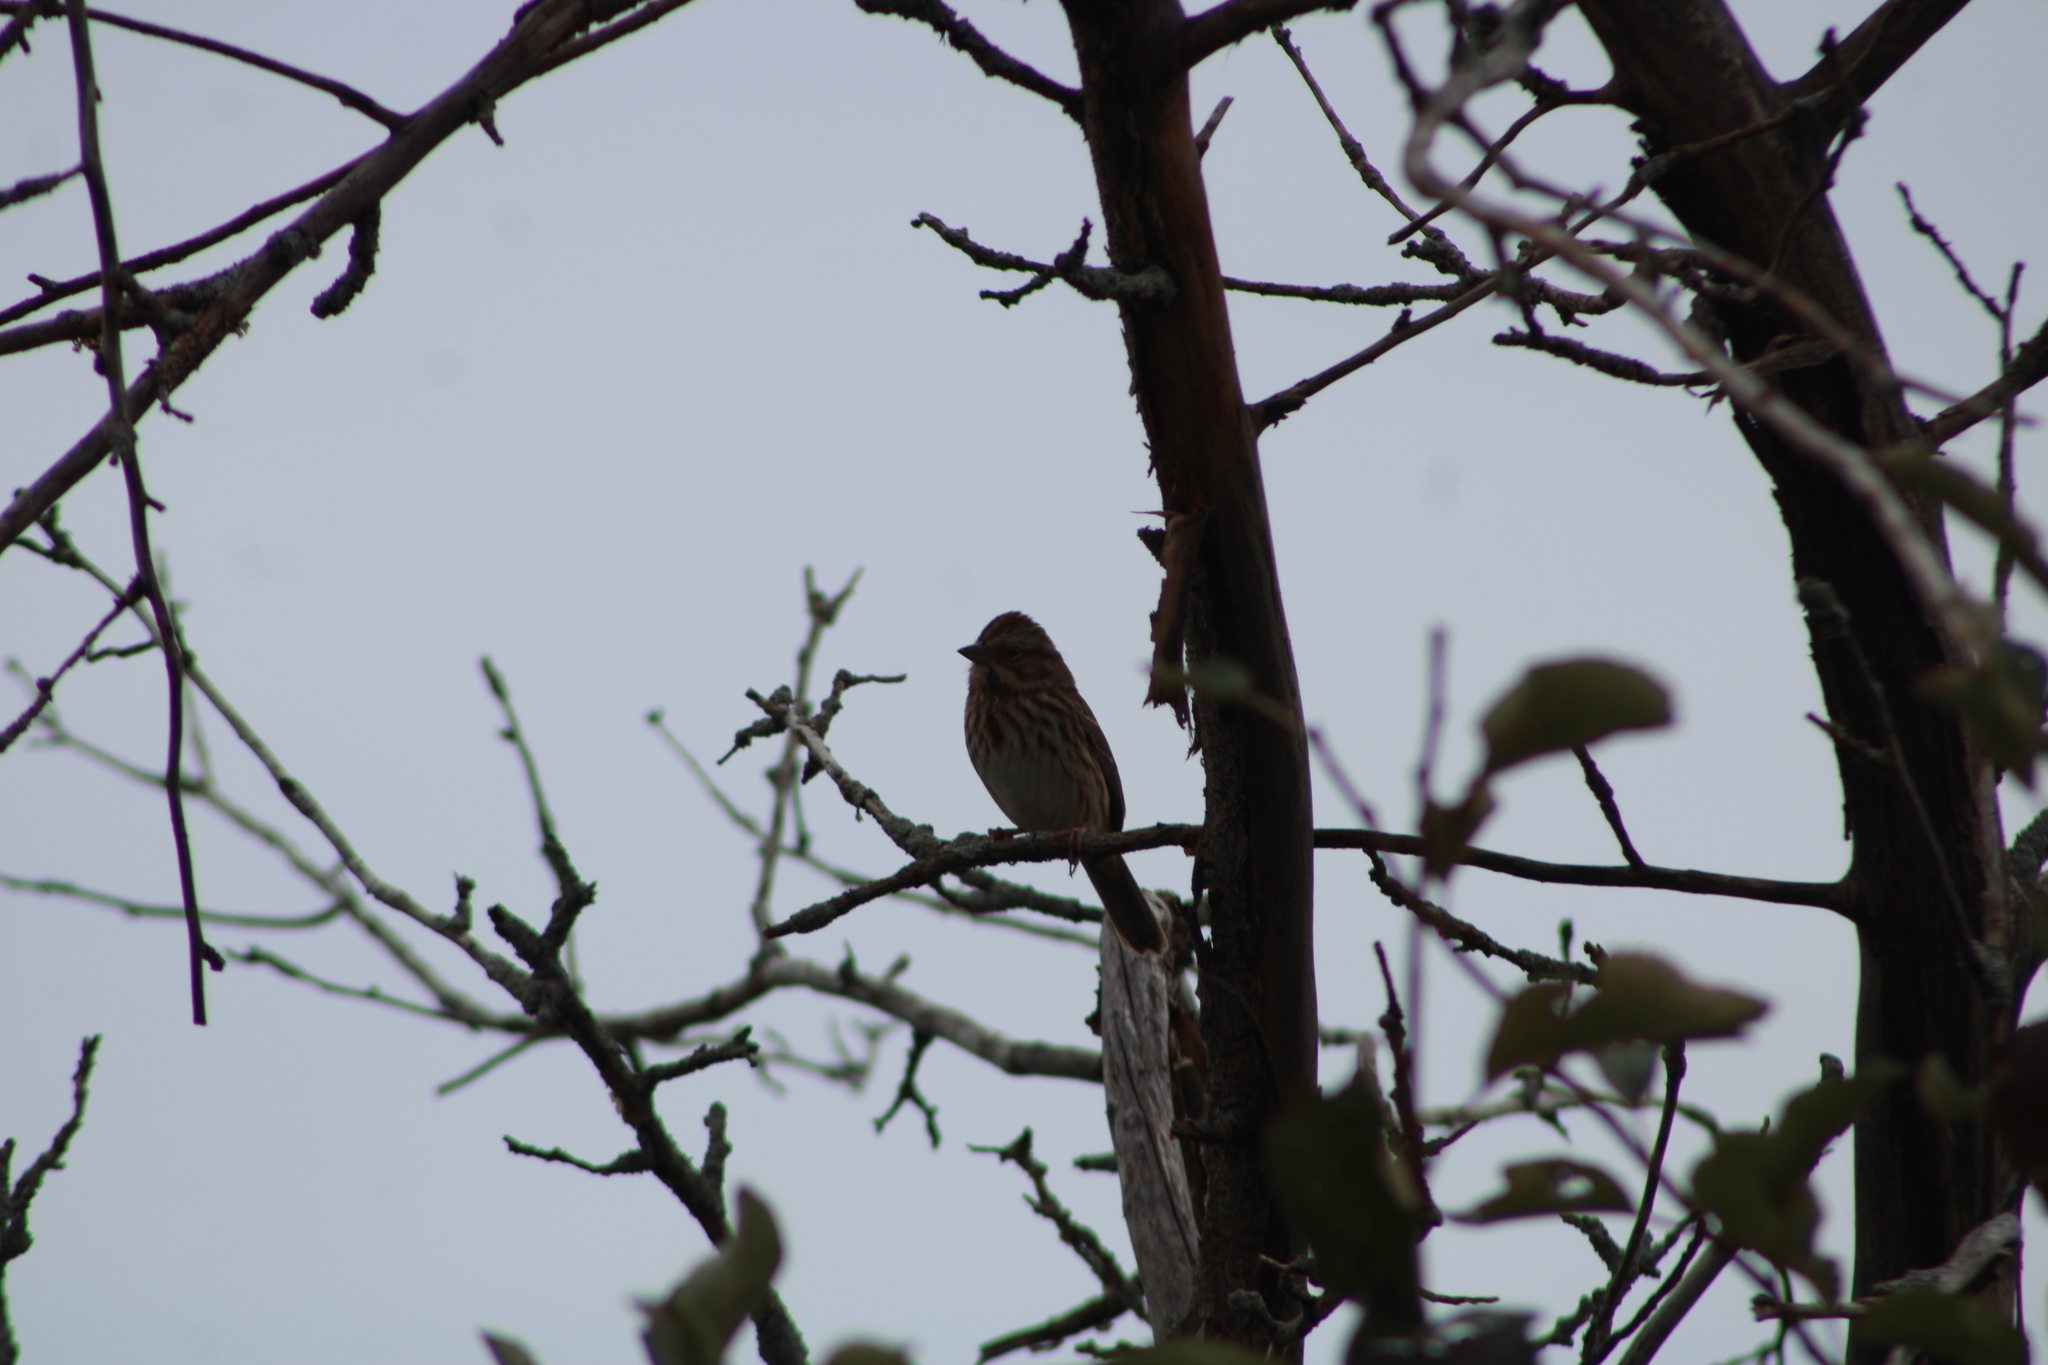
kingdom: Animalia
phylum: Chordata
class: Aves
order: Passeriformes
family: Passerellidae
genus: Melospiza
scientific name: Melospiza melodia
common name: Song sparrow
